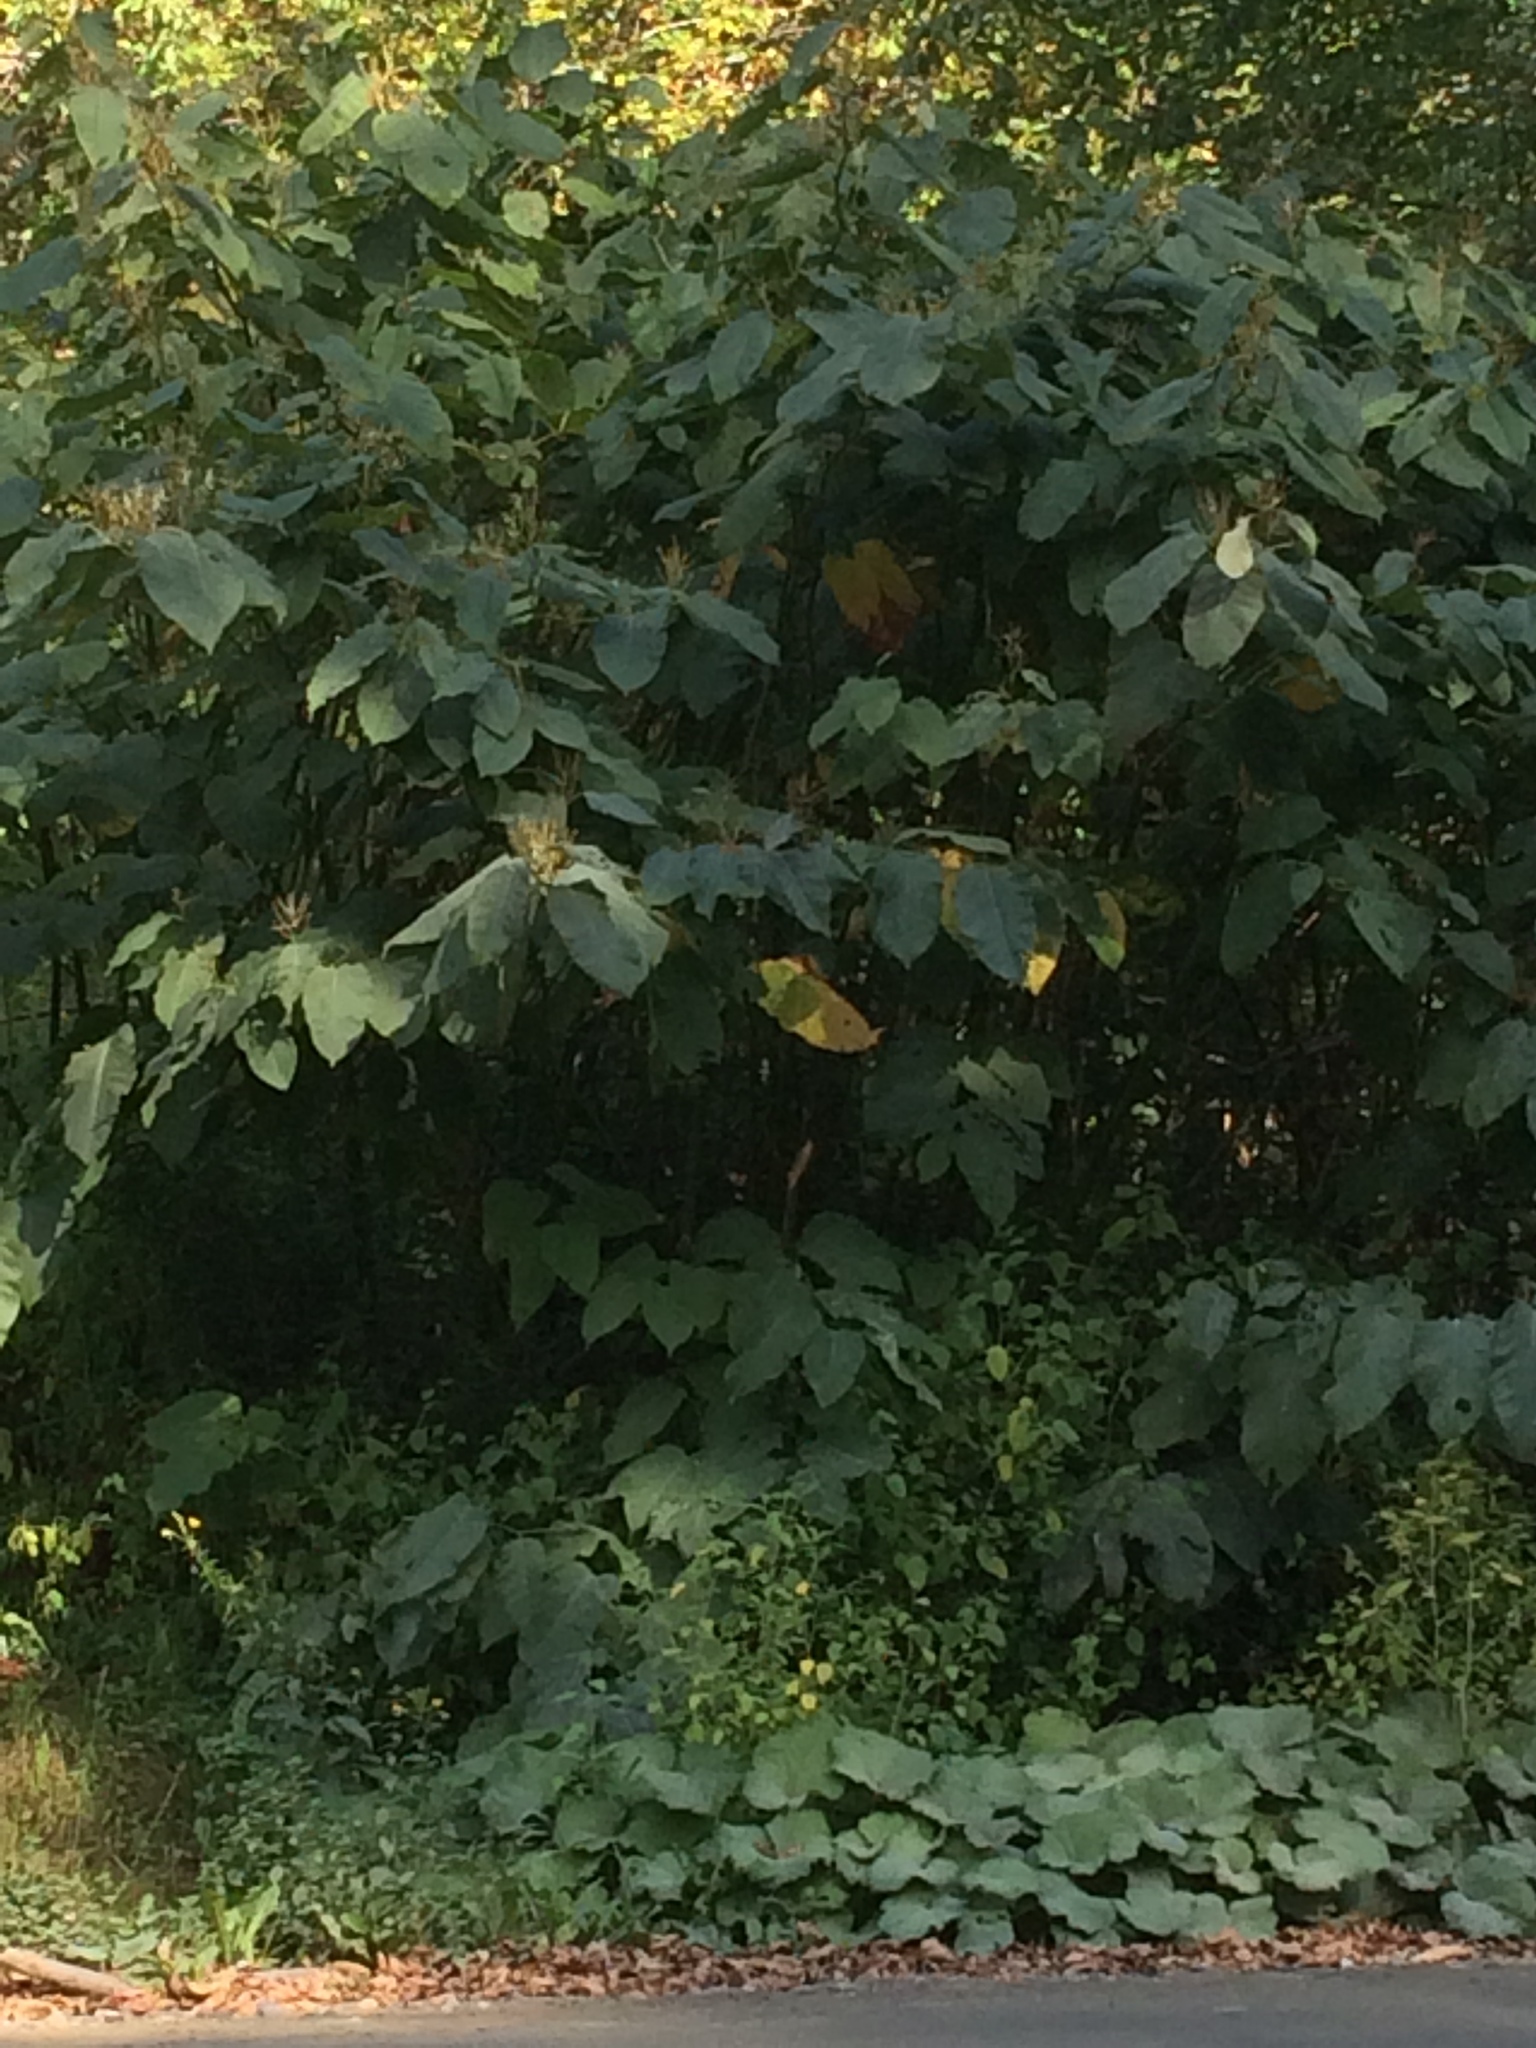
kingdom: Plantae
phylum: Tracheophyta
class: Magnoliopsida
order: Caryophyllales
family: Polygonaceae
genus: Reynoutria
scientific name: Reynoutria sachalinensis
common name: Giant knotweed
